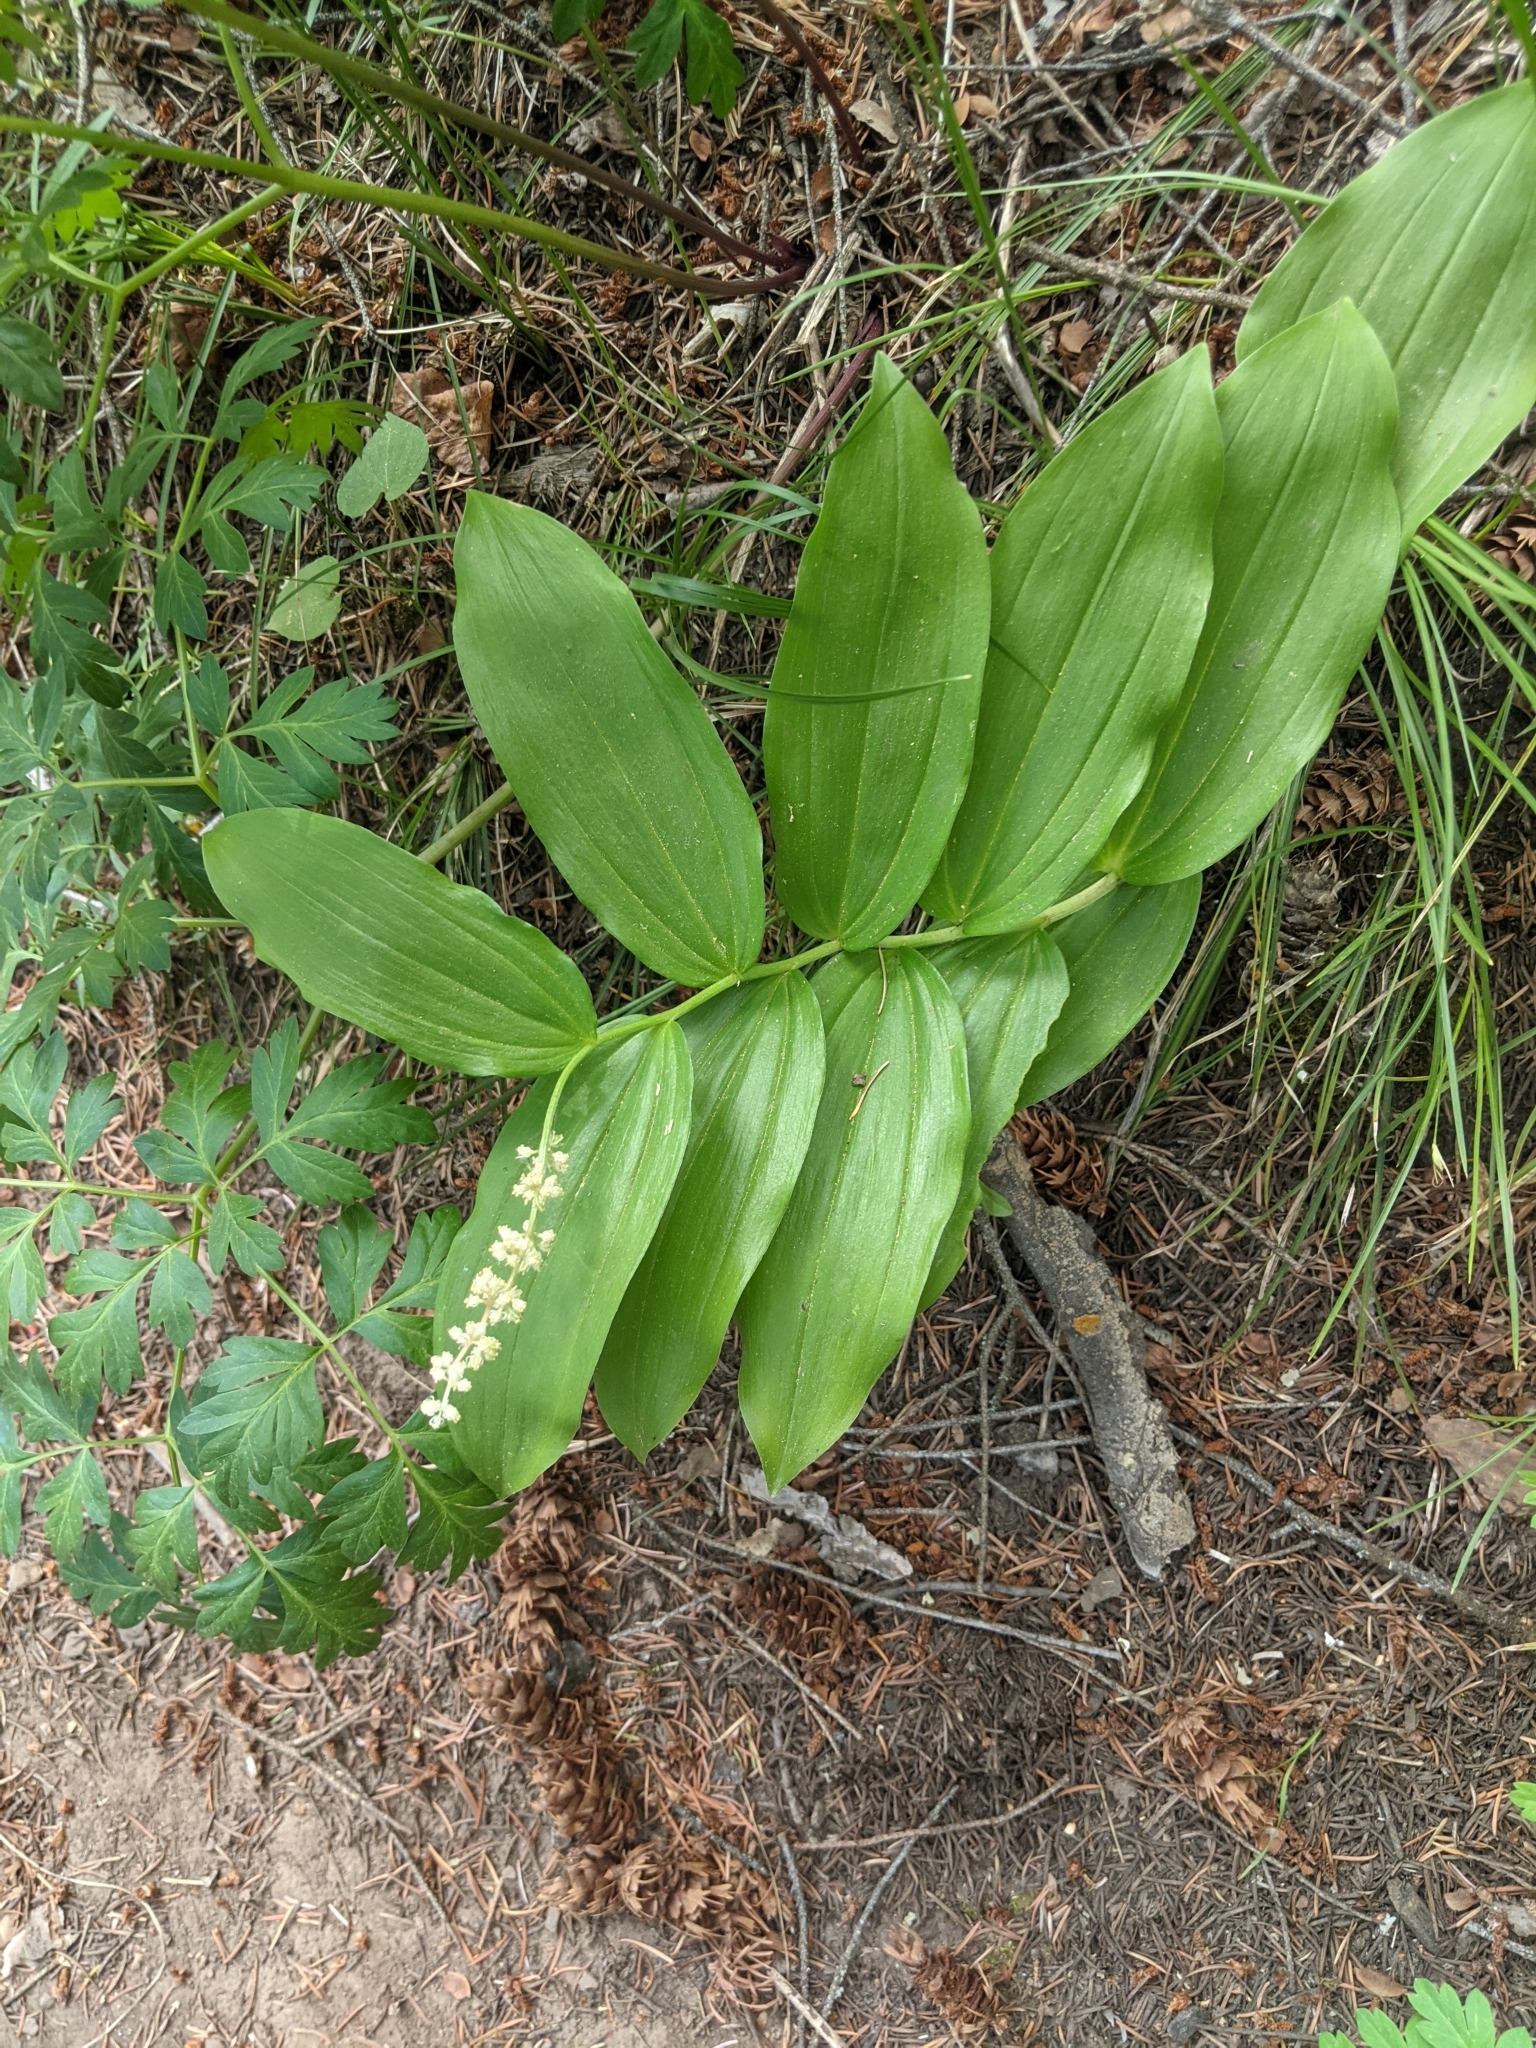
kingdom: Plantae
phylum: Tracheophyta
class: Liliopsida
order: Asparagales
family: Asparagaceae
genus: Maianthemum
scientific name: Maianthemum racemosum
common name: False spikenard
